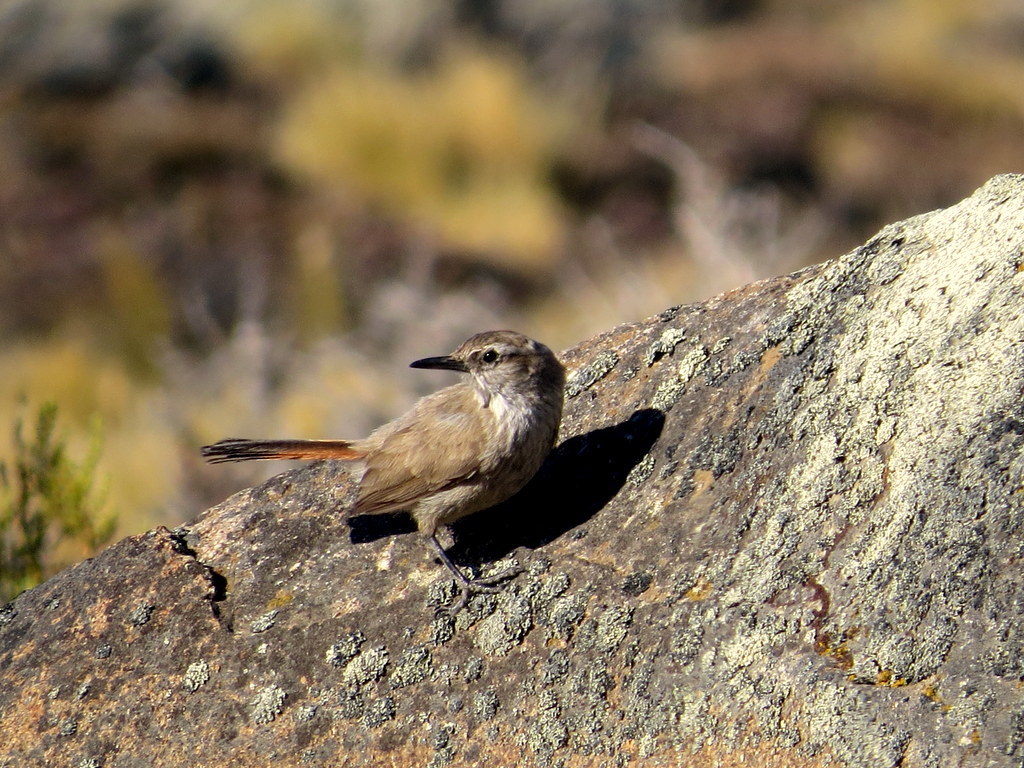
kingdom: Animalia
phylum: Chordata
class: Aves
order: Passeriformes
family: Furnariidae
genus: Eremobius
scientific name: Eremobius phoenicurus
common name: Band-tailed eremobius
